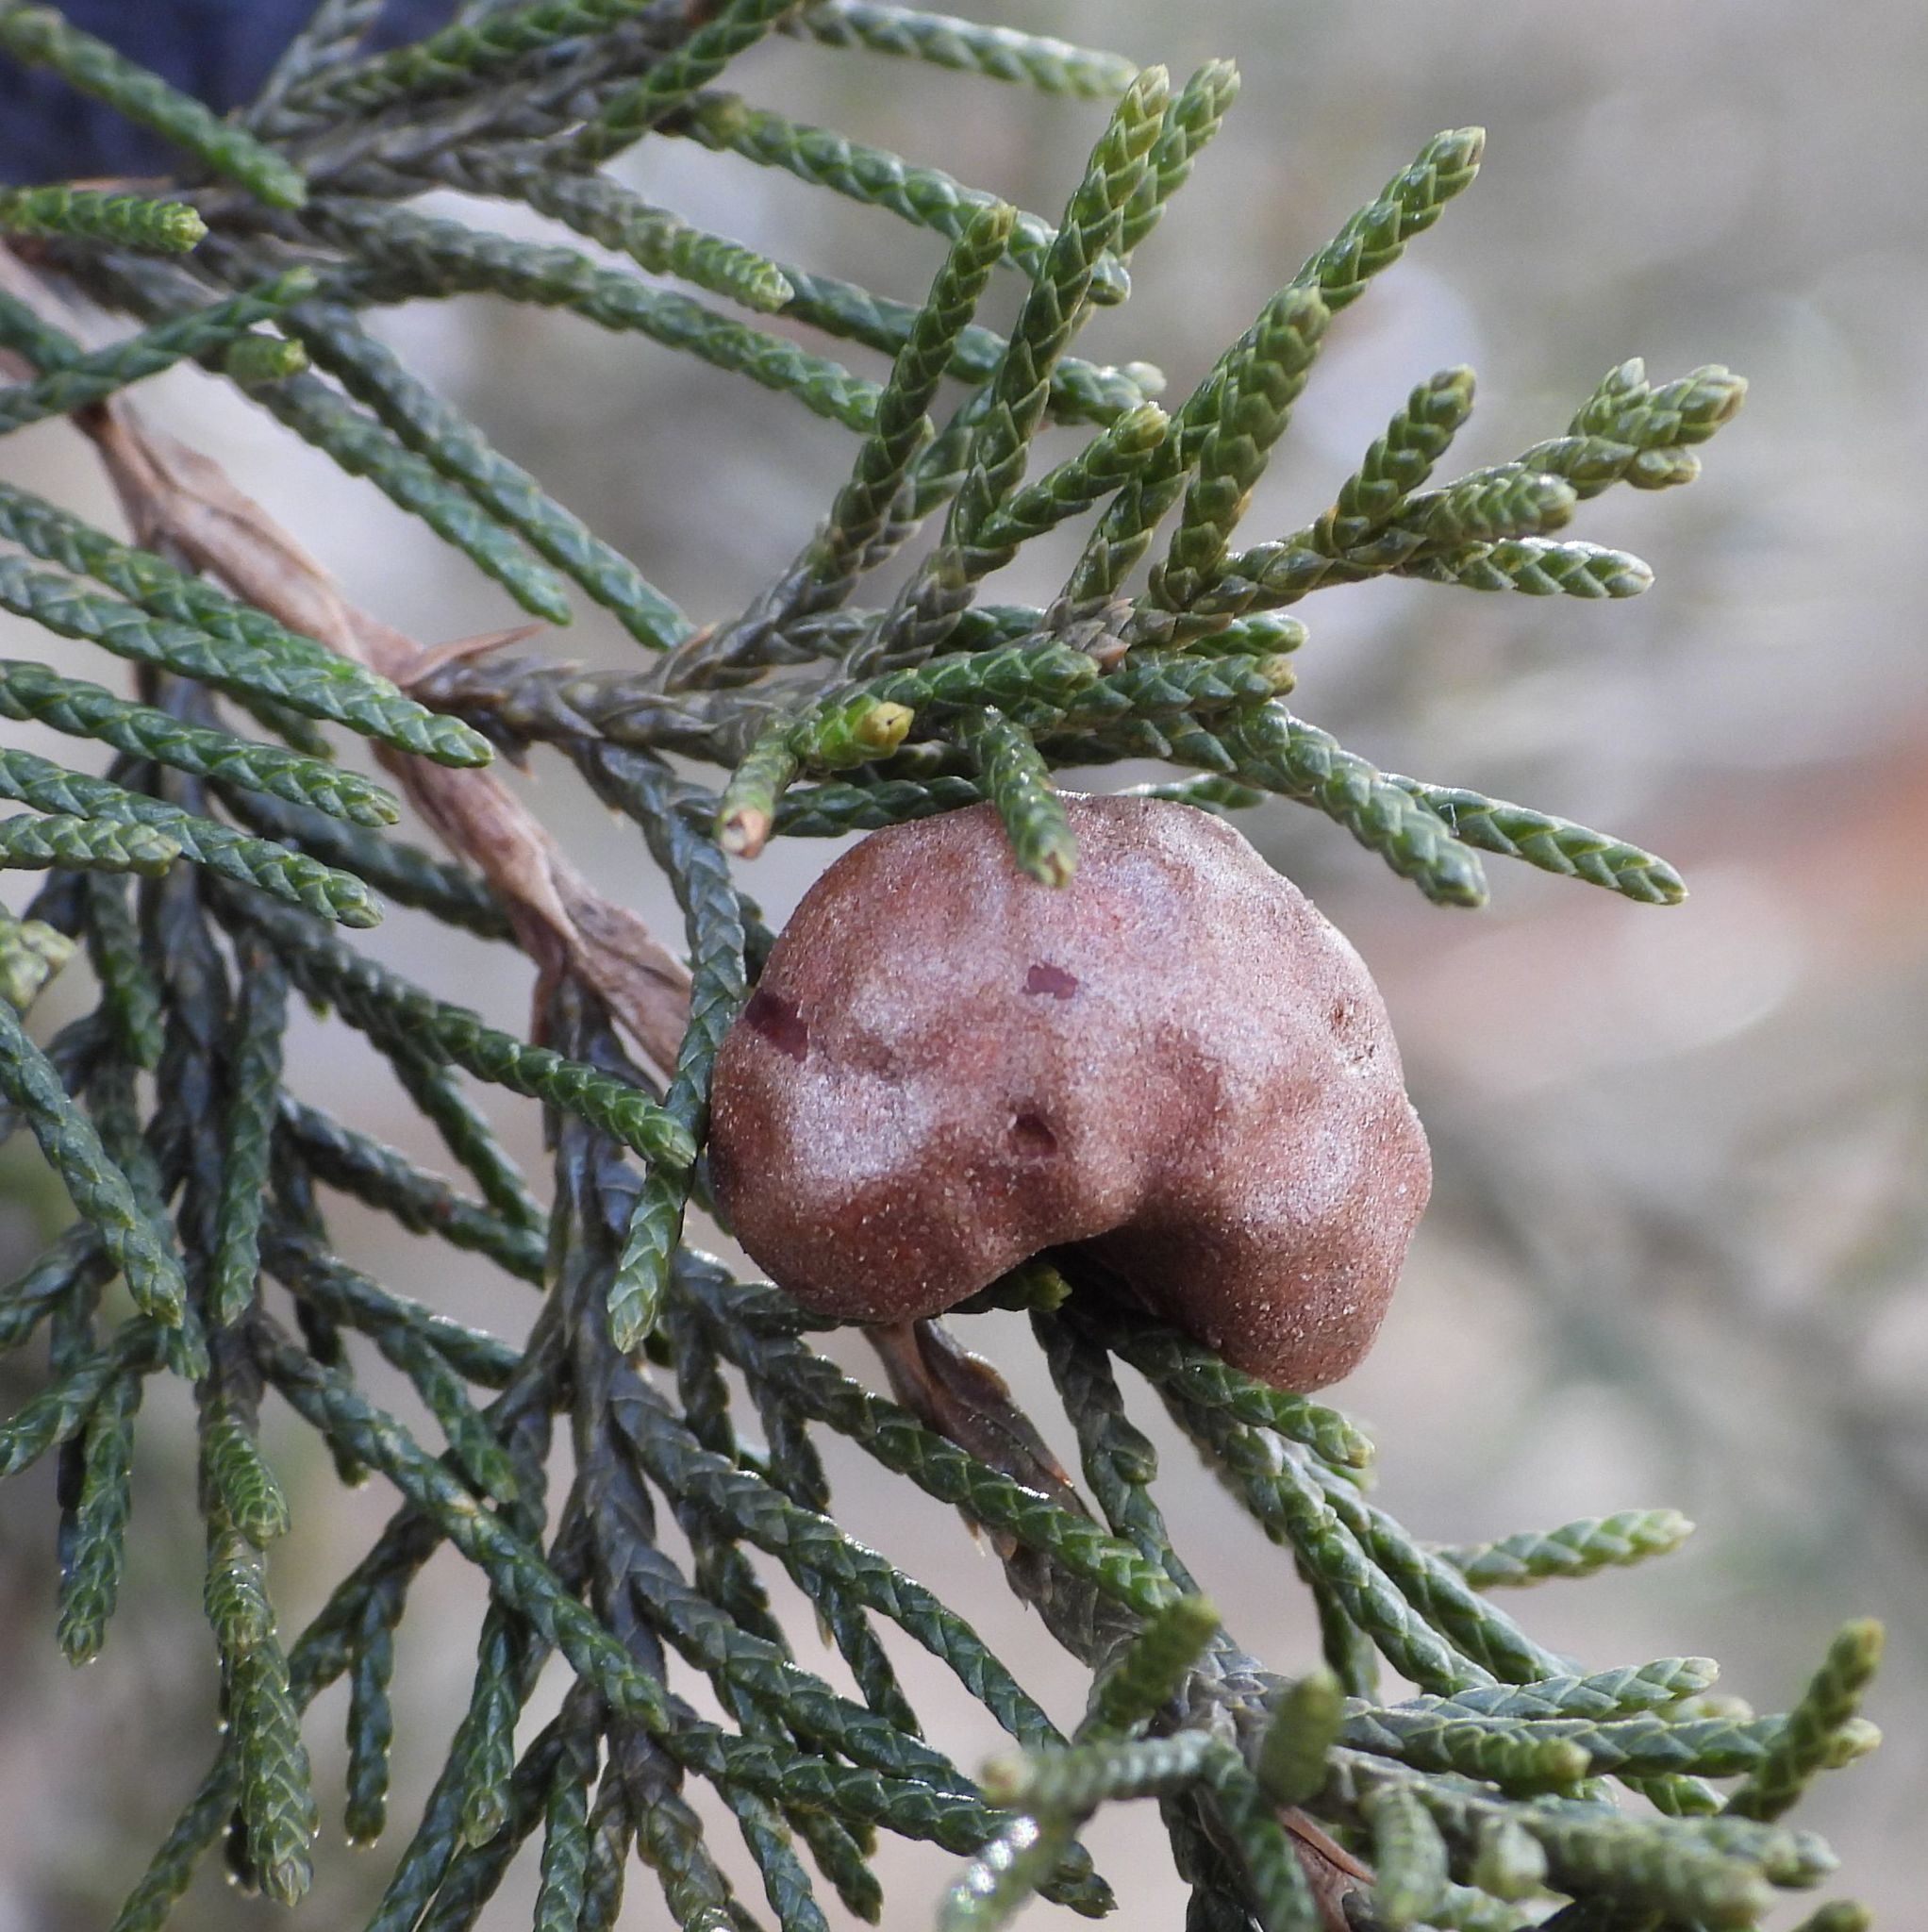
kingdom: Fungi
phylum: Basidiomycota
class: Pucciniomycetes
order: Pucciniales
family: Gymnosporangiaceae
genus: Gymnosporangium
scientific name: Gymnosporangium juniperi-virginianae
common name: Juniper-apple rust
